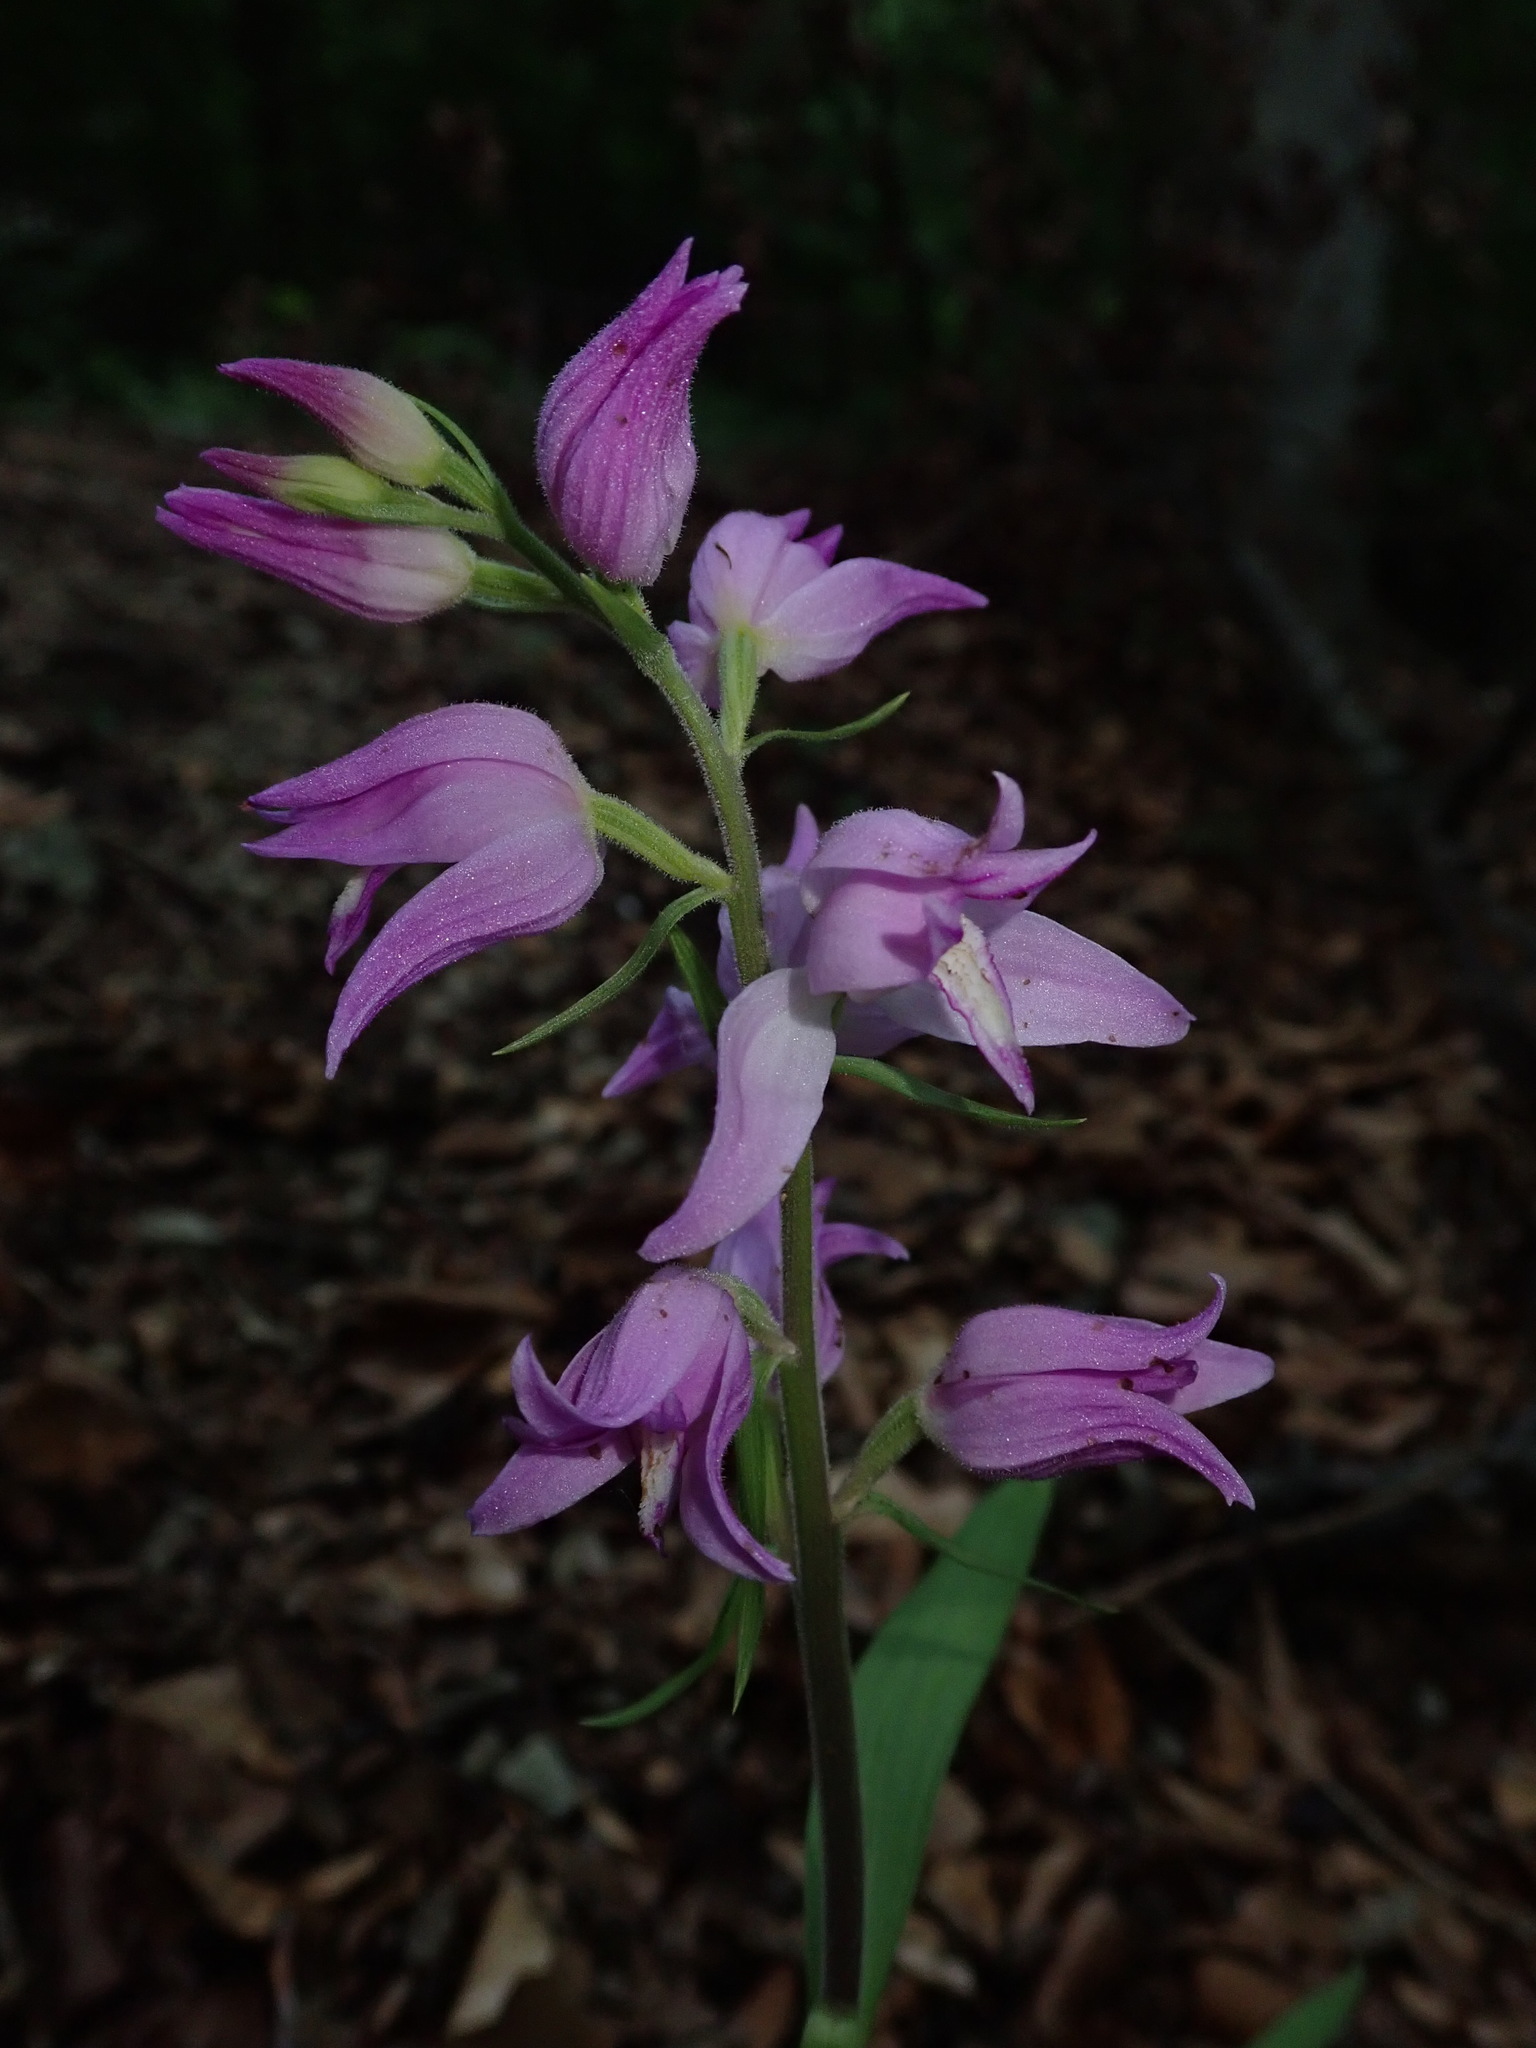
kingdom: Plantae
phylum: Tracheophyta
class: Liliopsida
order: Asparagales
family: Orchidaceae
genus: Cephalanthera
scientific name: Cephalanthera rubra
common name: Red helleborine
